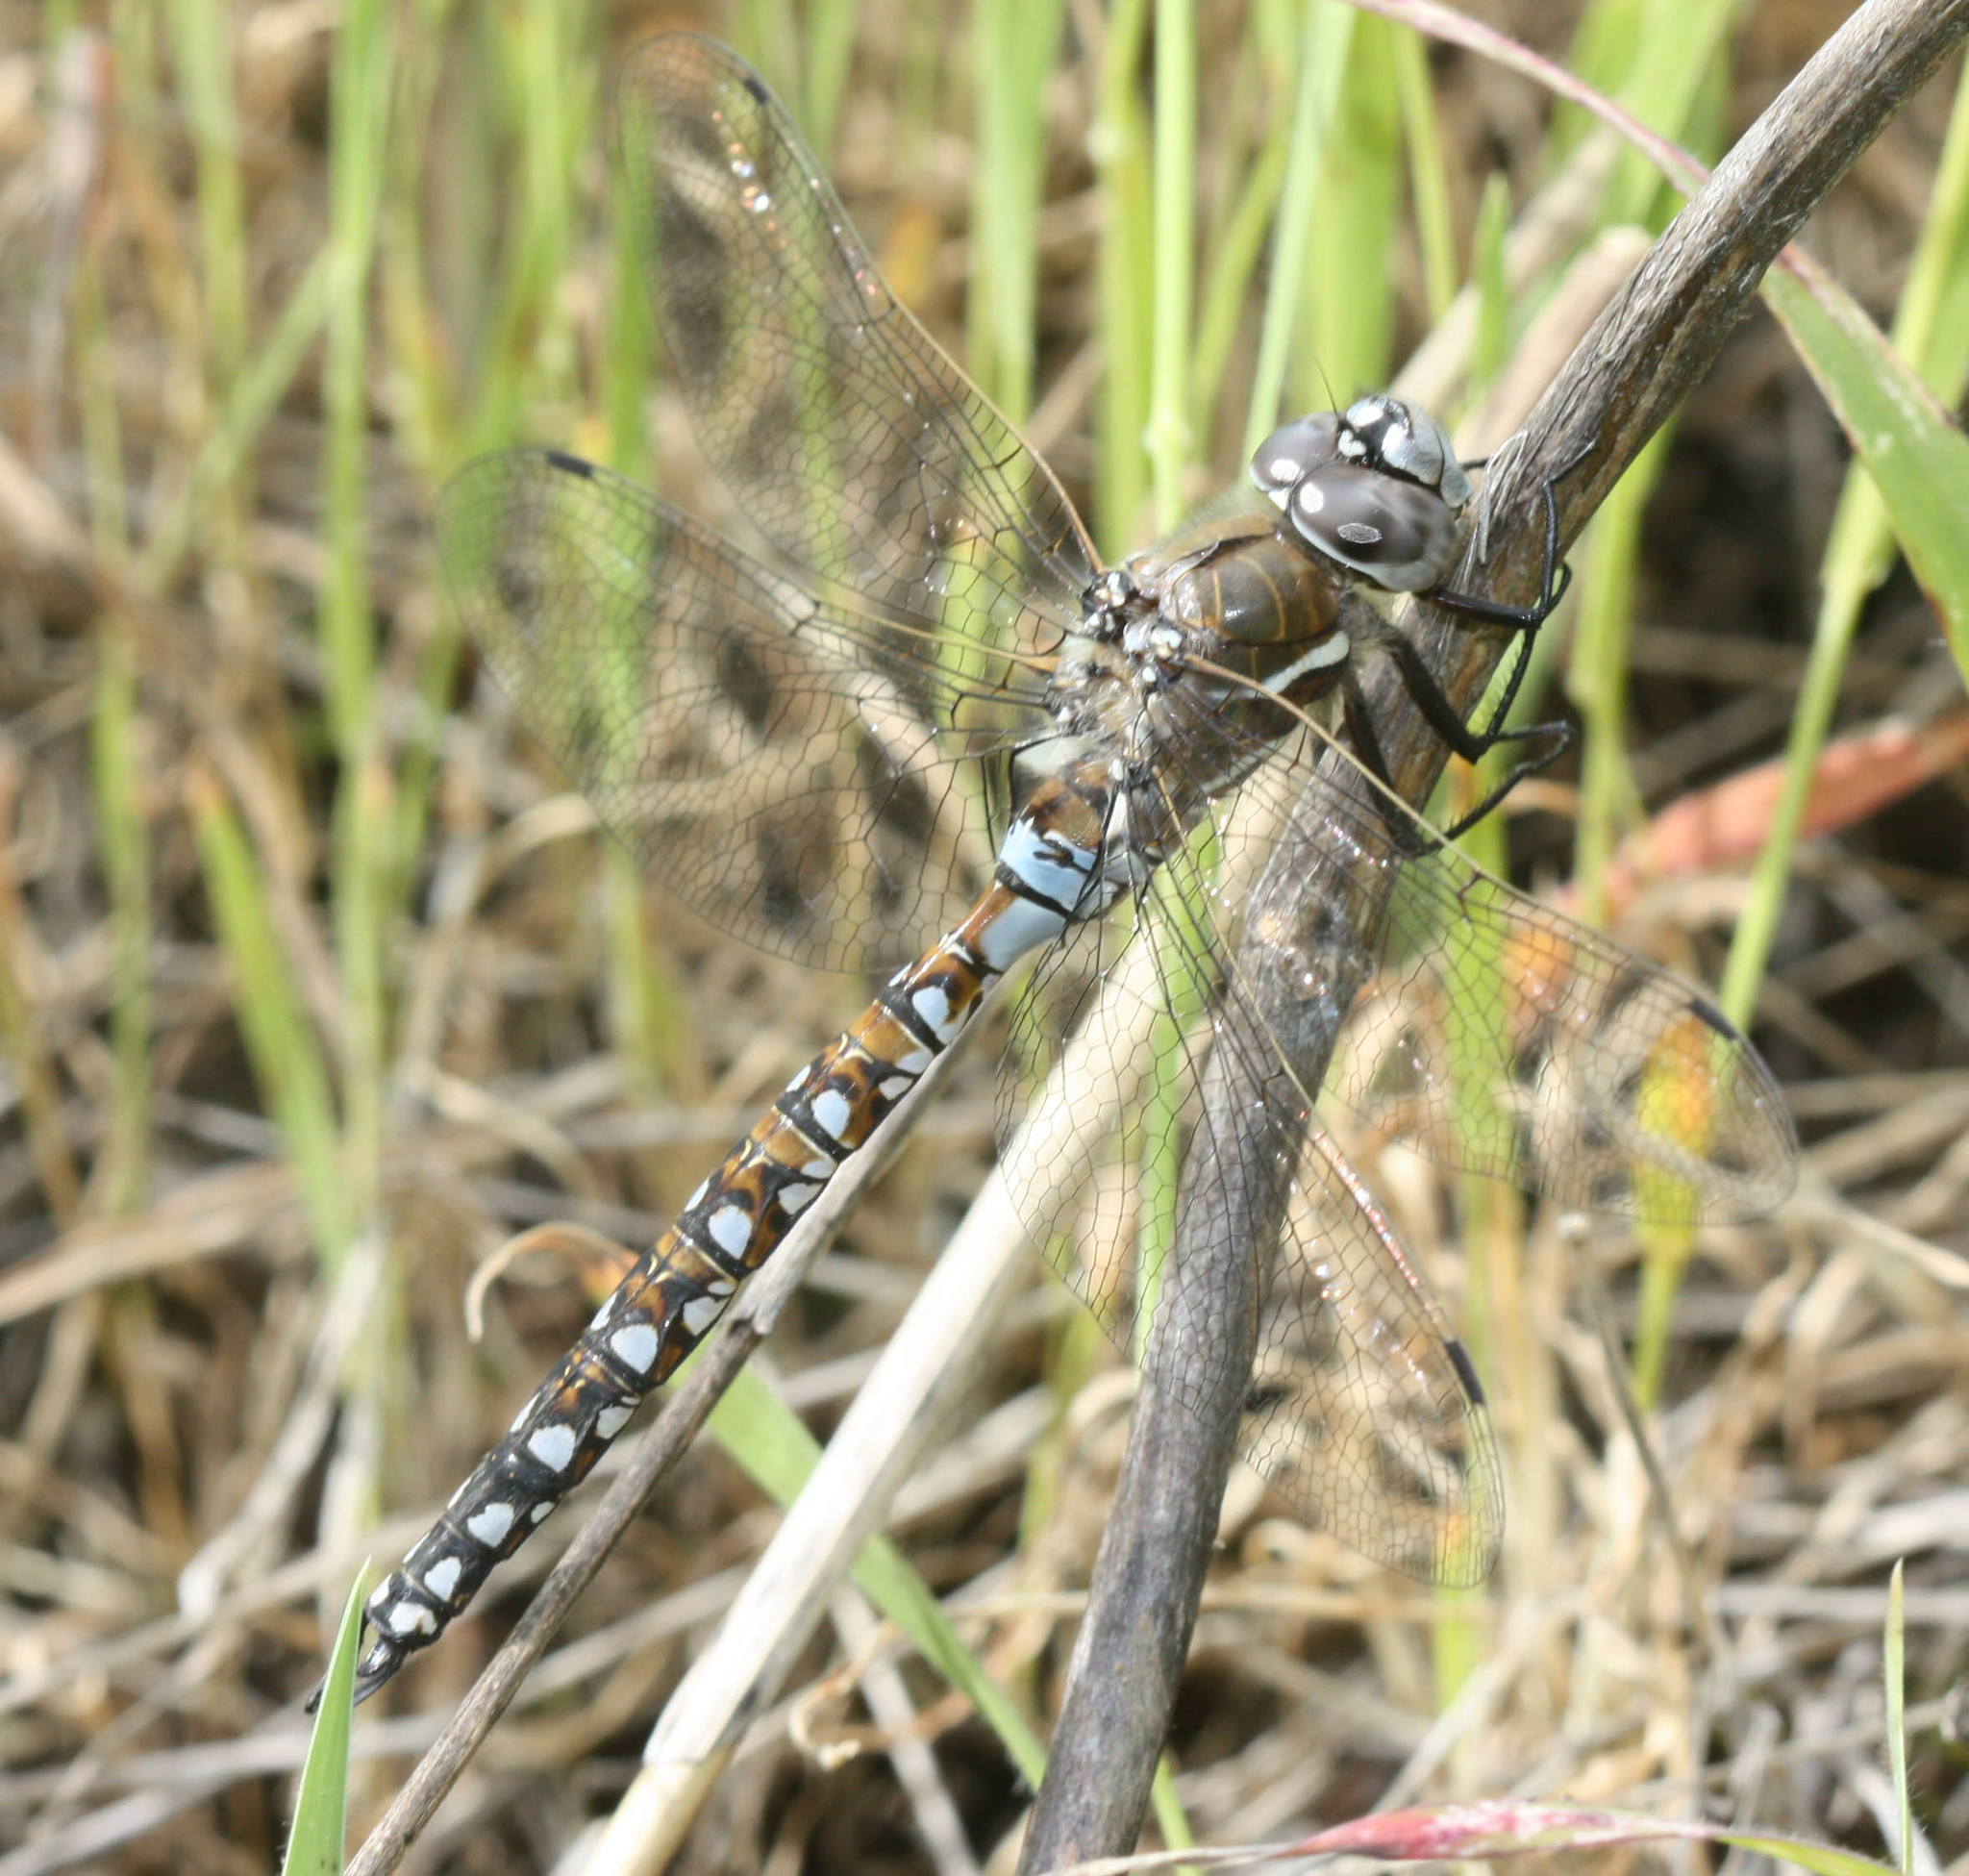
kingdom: Animalia
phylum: Arthropoda
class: Insecta
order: Odonata
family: Aeshnidae
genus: Rhionaeschna
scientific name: Rhionaeschna californica
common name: California darner
